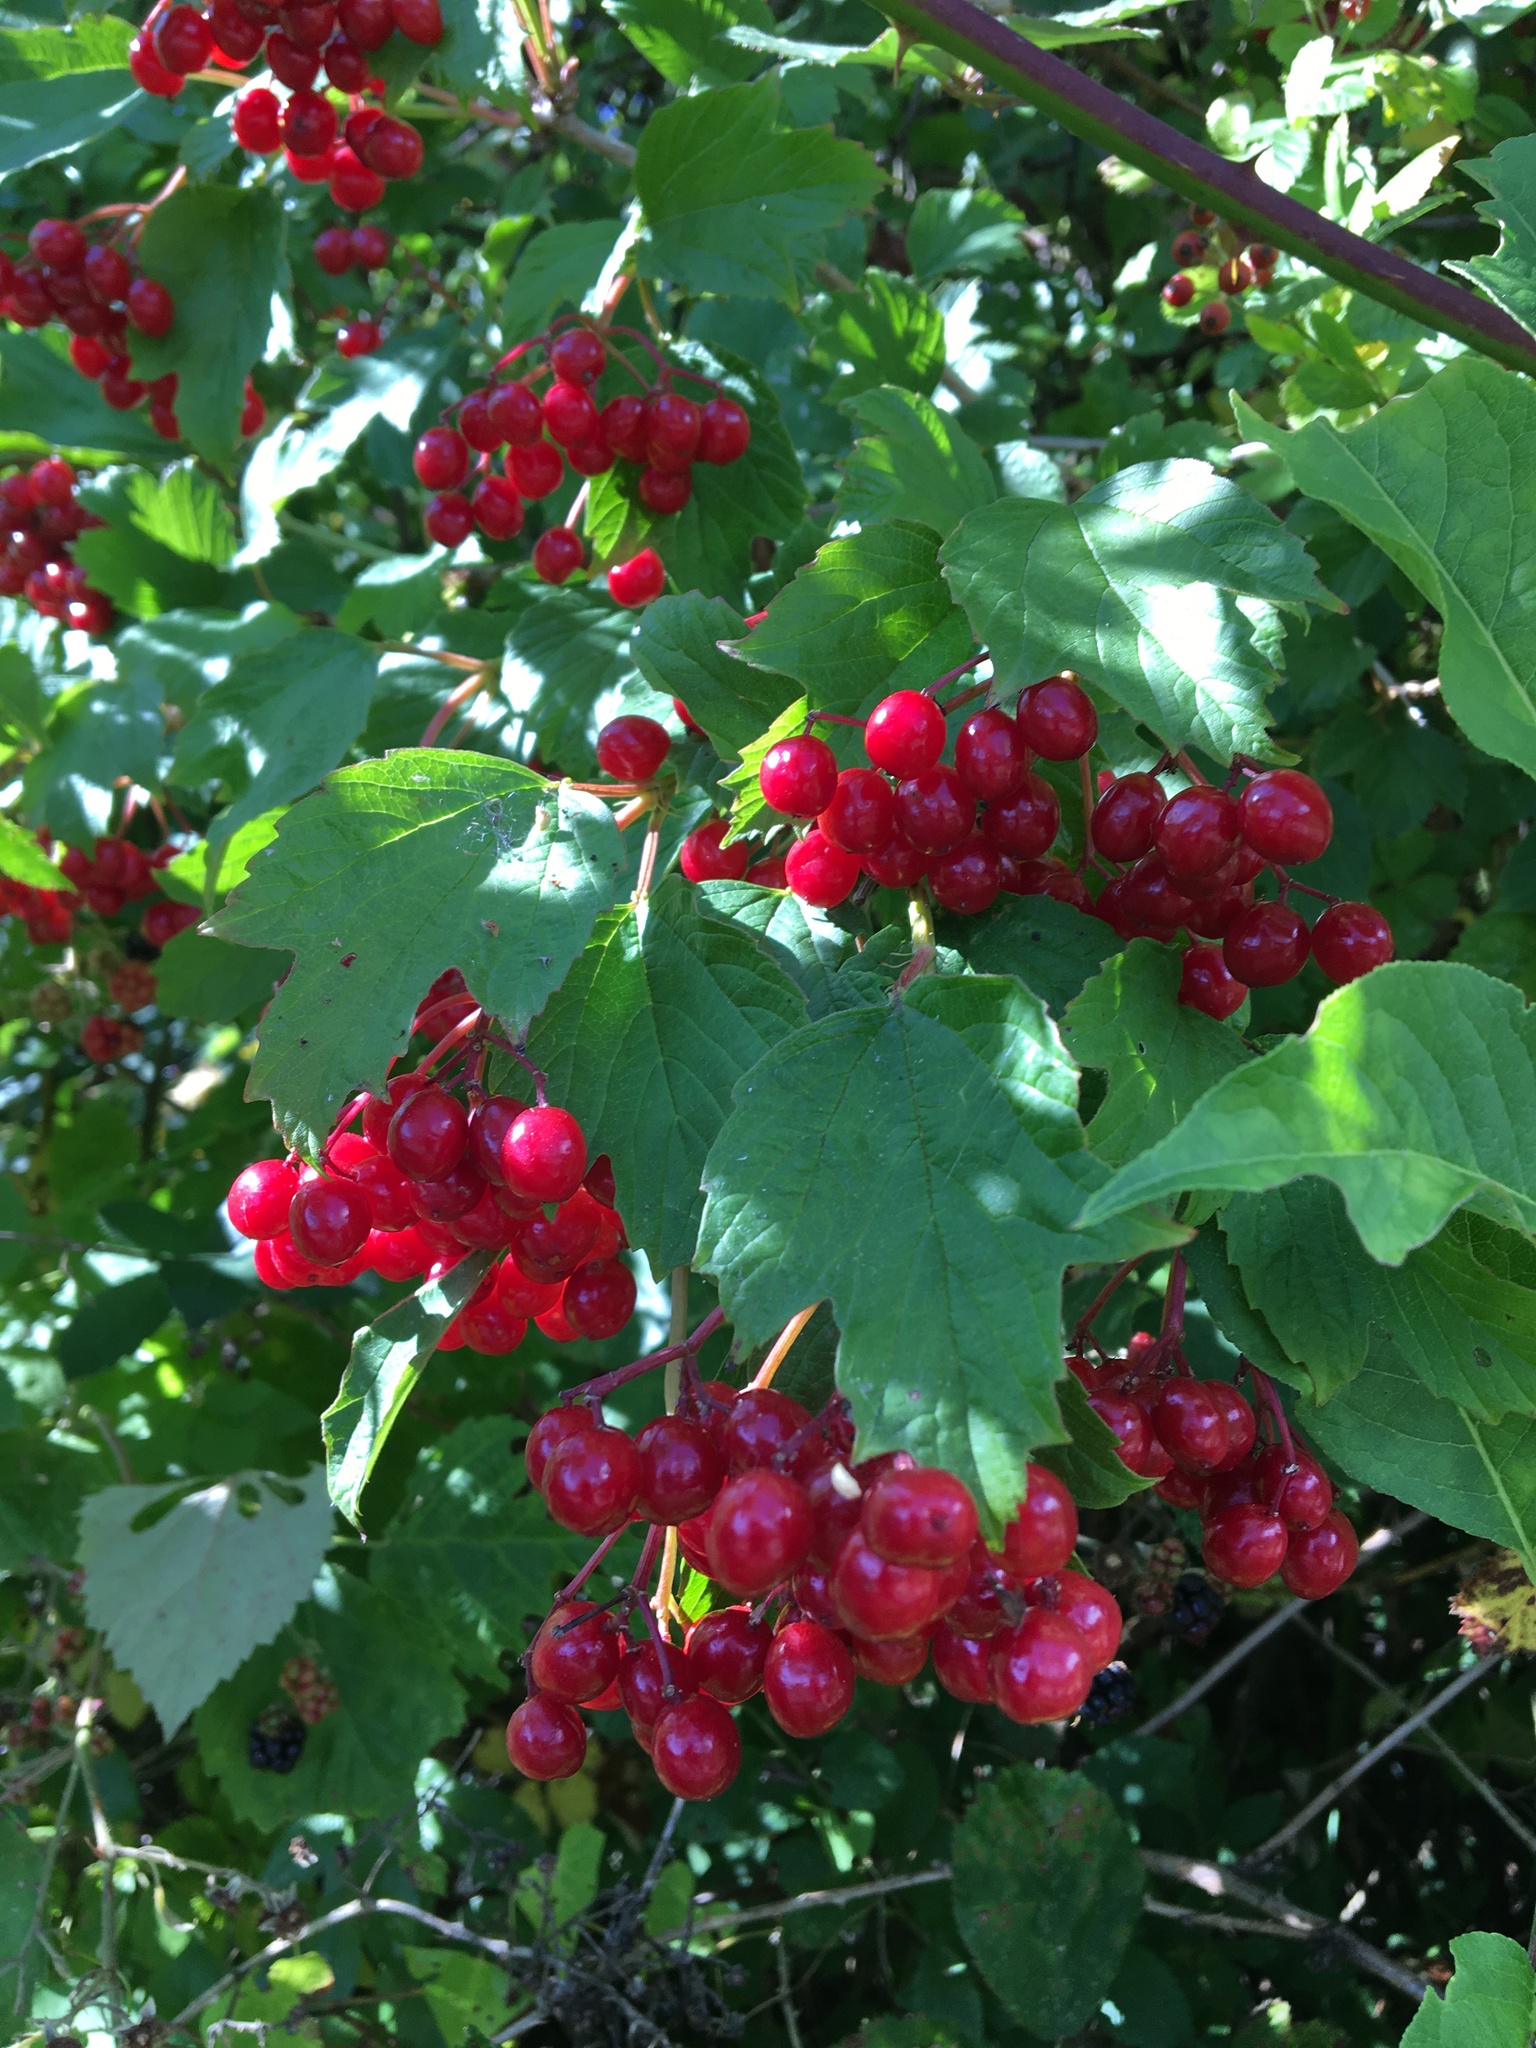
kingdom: Plantae
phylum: Tracheophyta
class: Magnoliopsida
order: Dipsacales
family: Viburnaceae
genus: Viburnum
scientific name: Viburnum opulus
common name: Guelder-rose
